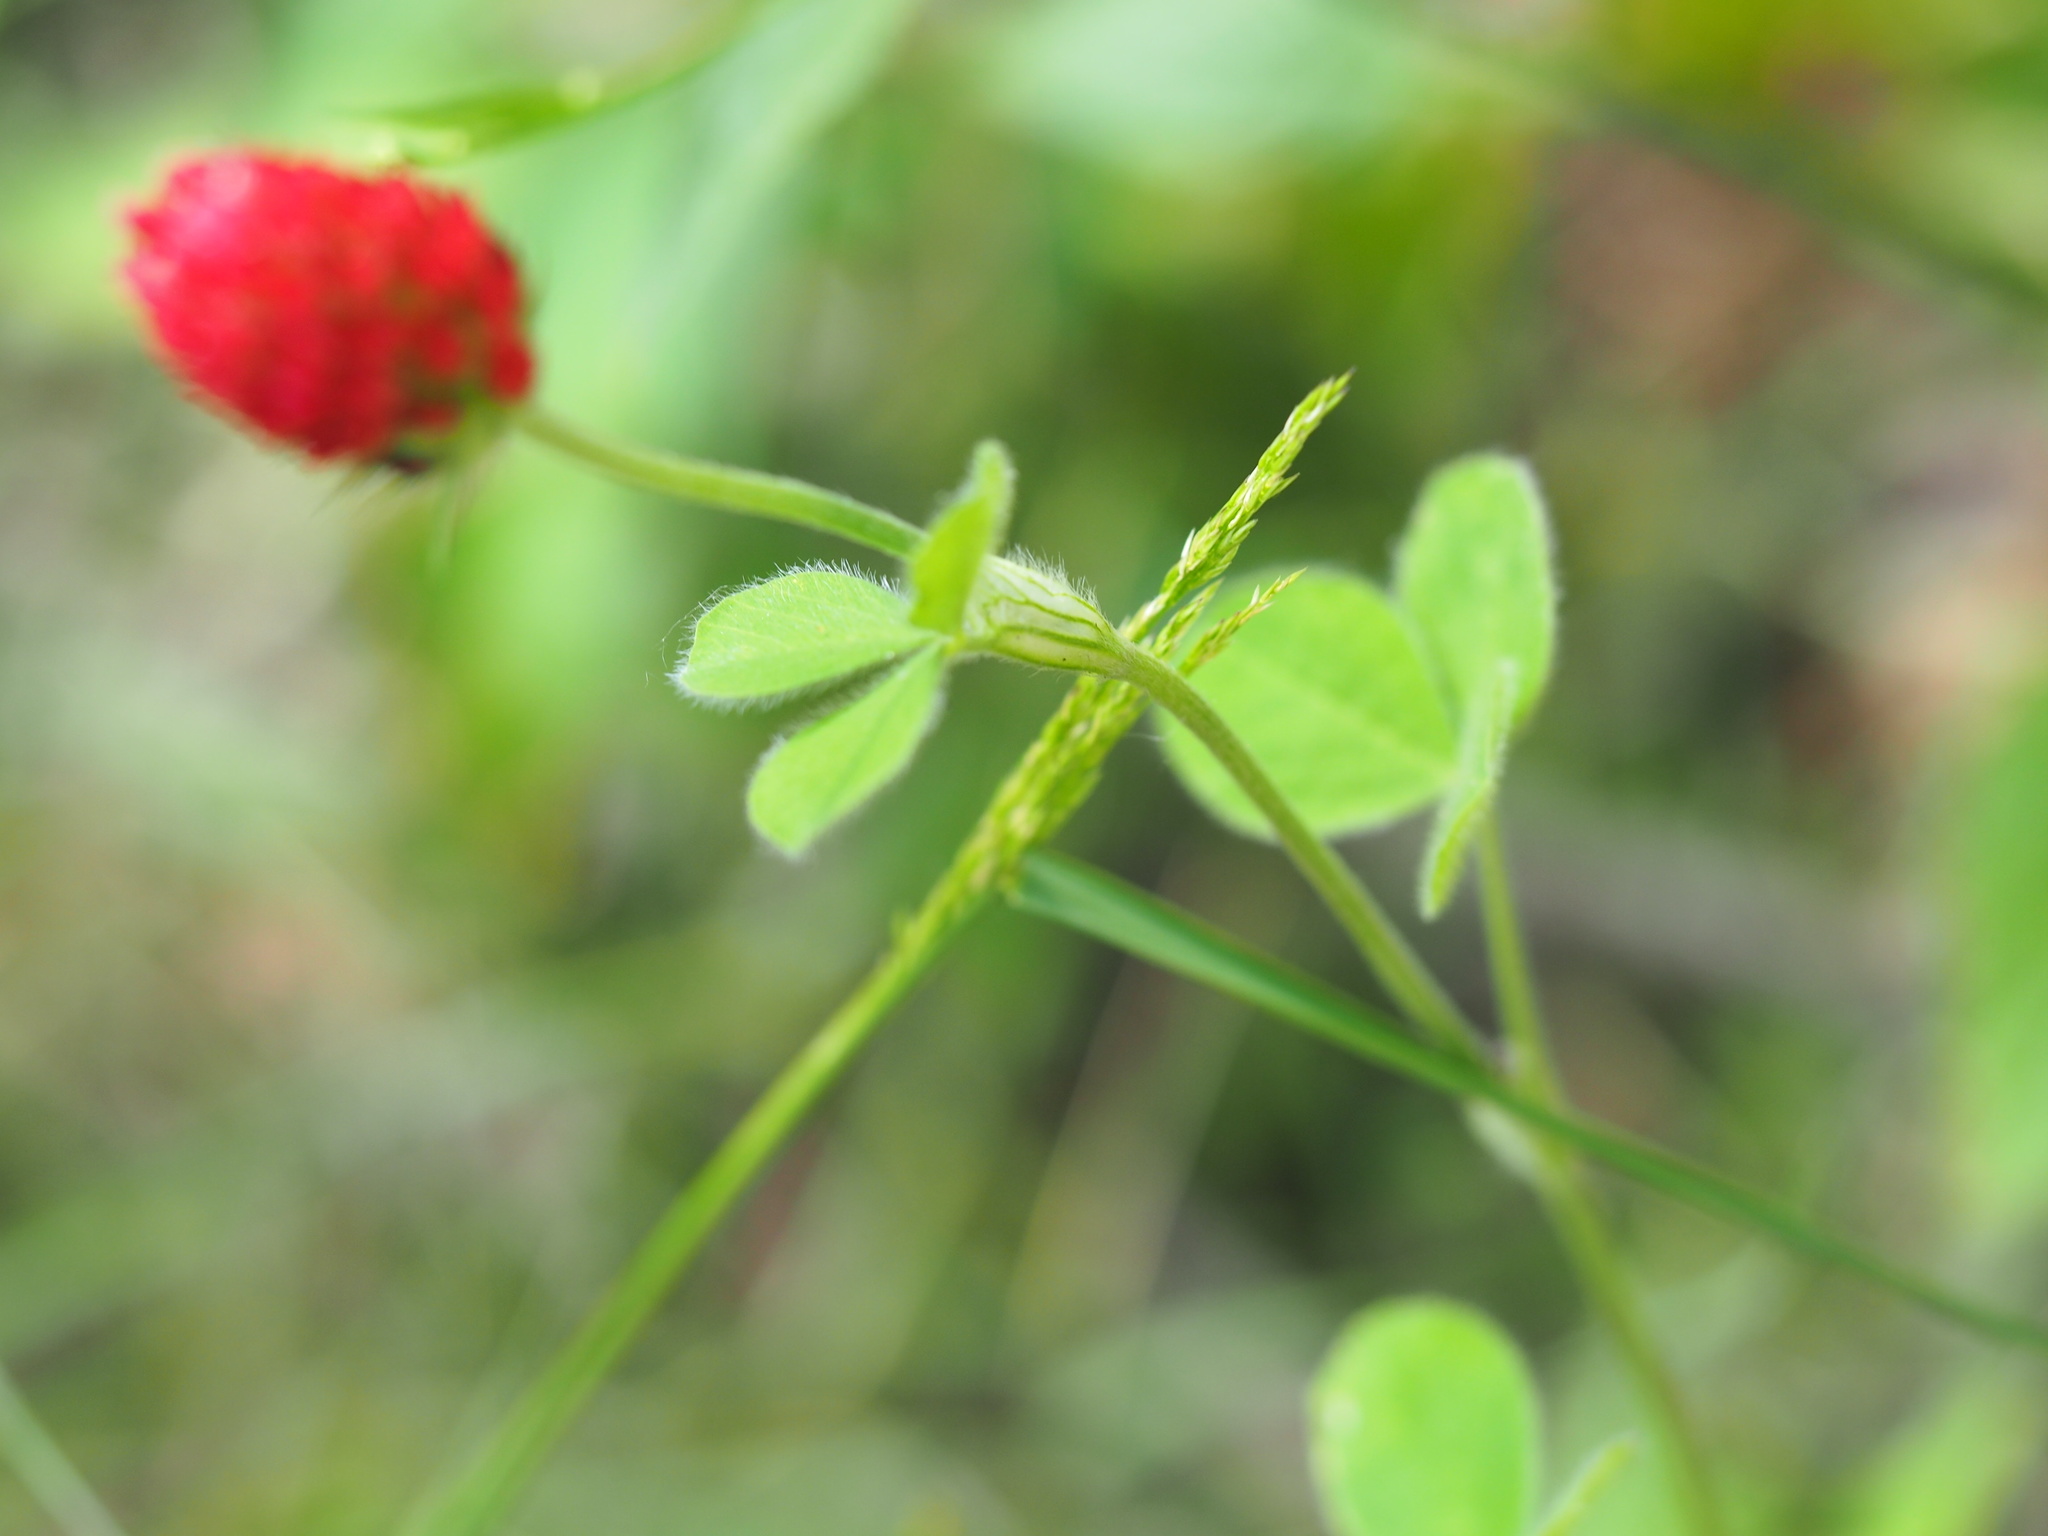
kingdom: Plantae
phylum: Tracheophyta
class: Magnoliopsida
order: Fabales
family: Fabaceae
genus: Trifolium
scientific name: Trifolium incarnatum
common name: Crimson clover
